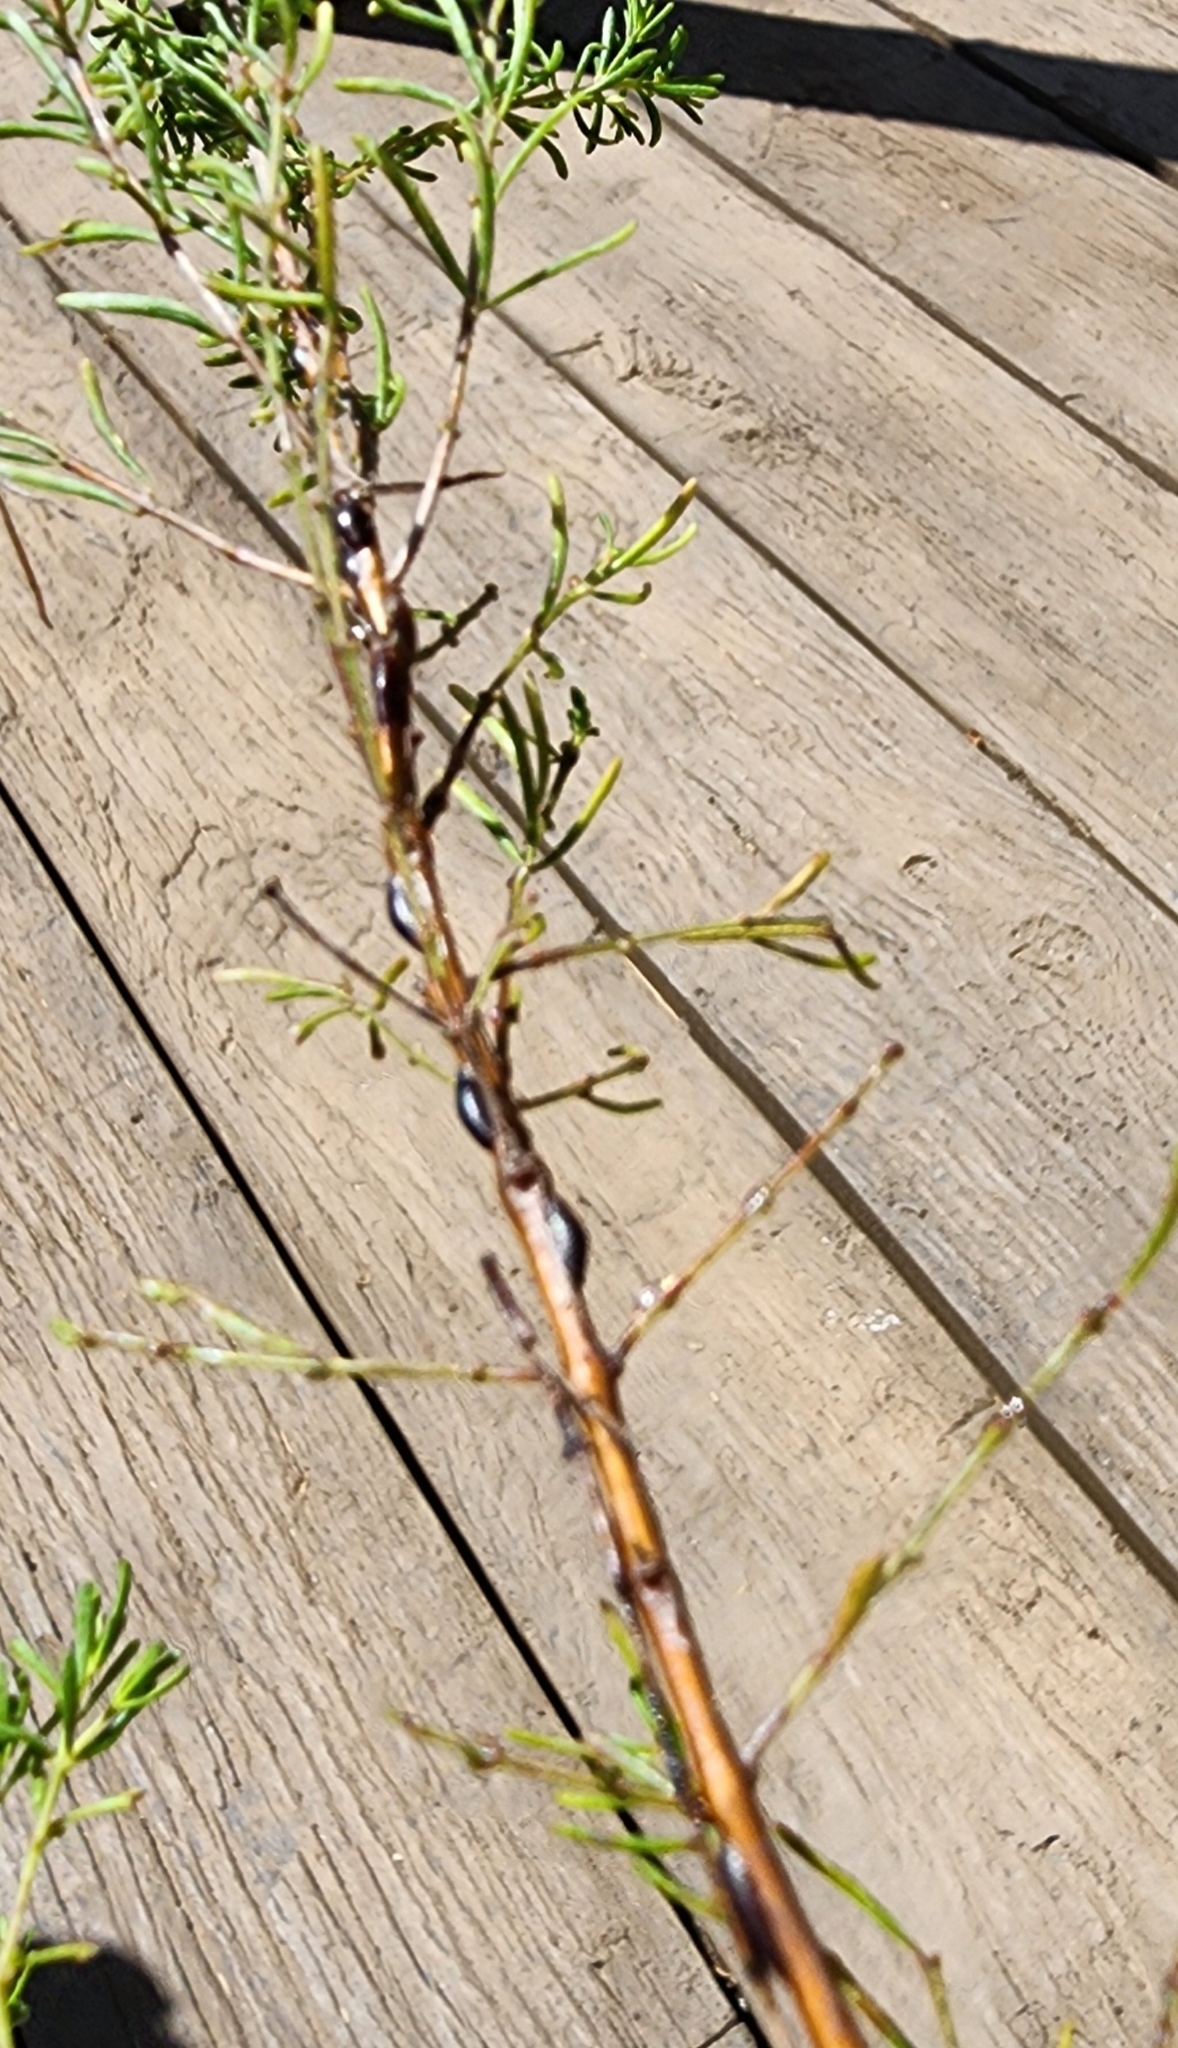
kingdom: Animalia
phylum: Arthropoda
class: Insecta
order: Hemiptera
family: Coccidae
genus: Parasaissetia
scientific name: Parasaissetia nigra
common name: Black scale
